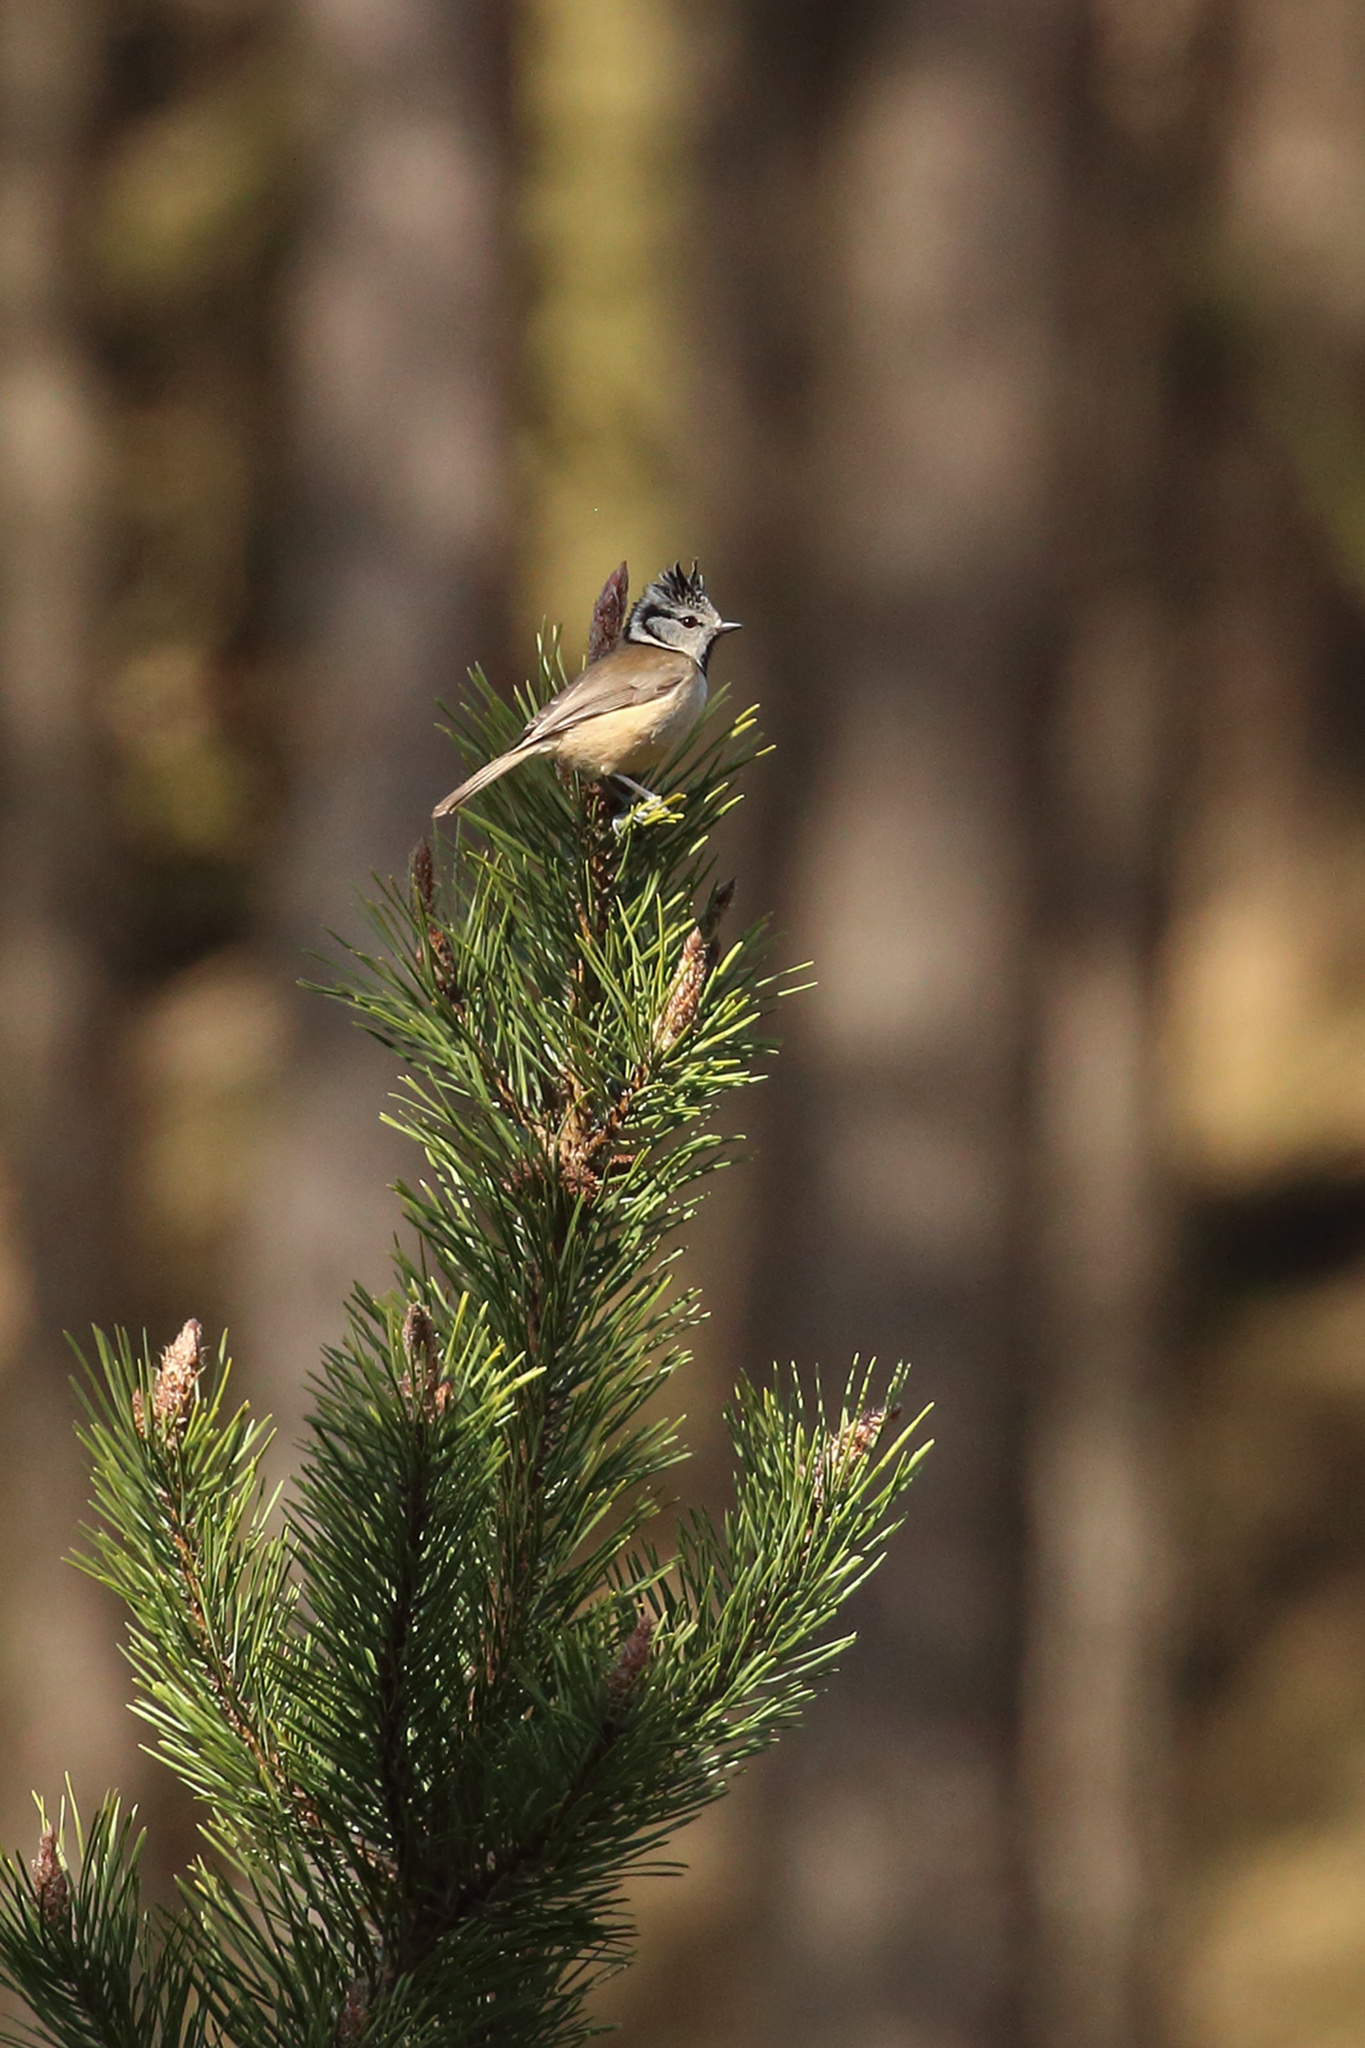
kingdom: Animalia
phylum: Chordata
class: Aves
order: Passeriformes
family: Paridae
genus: Lophophanes
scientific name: Lophophanes cristatus
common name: European crested tit
